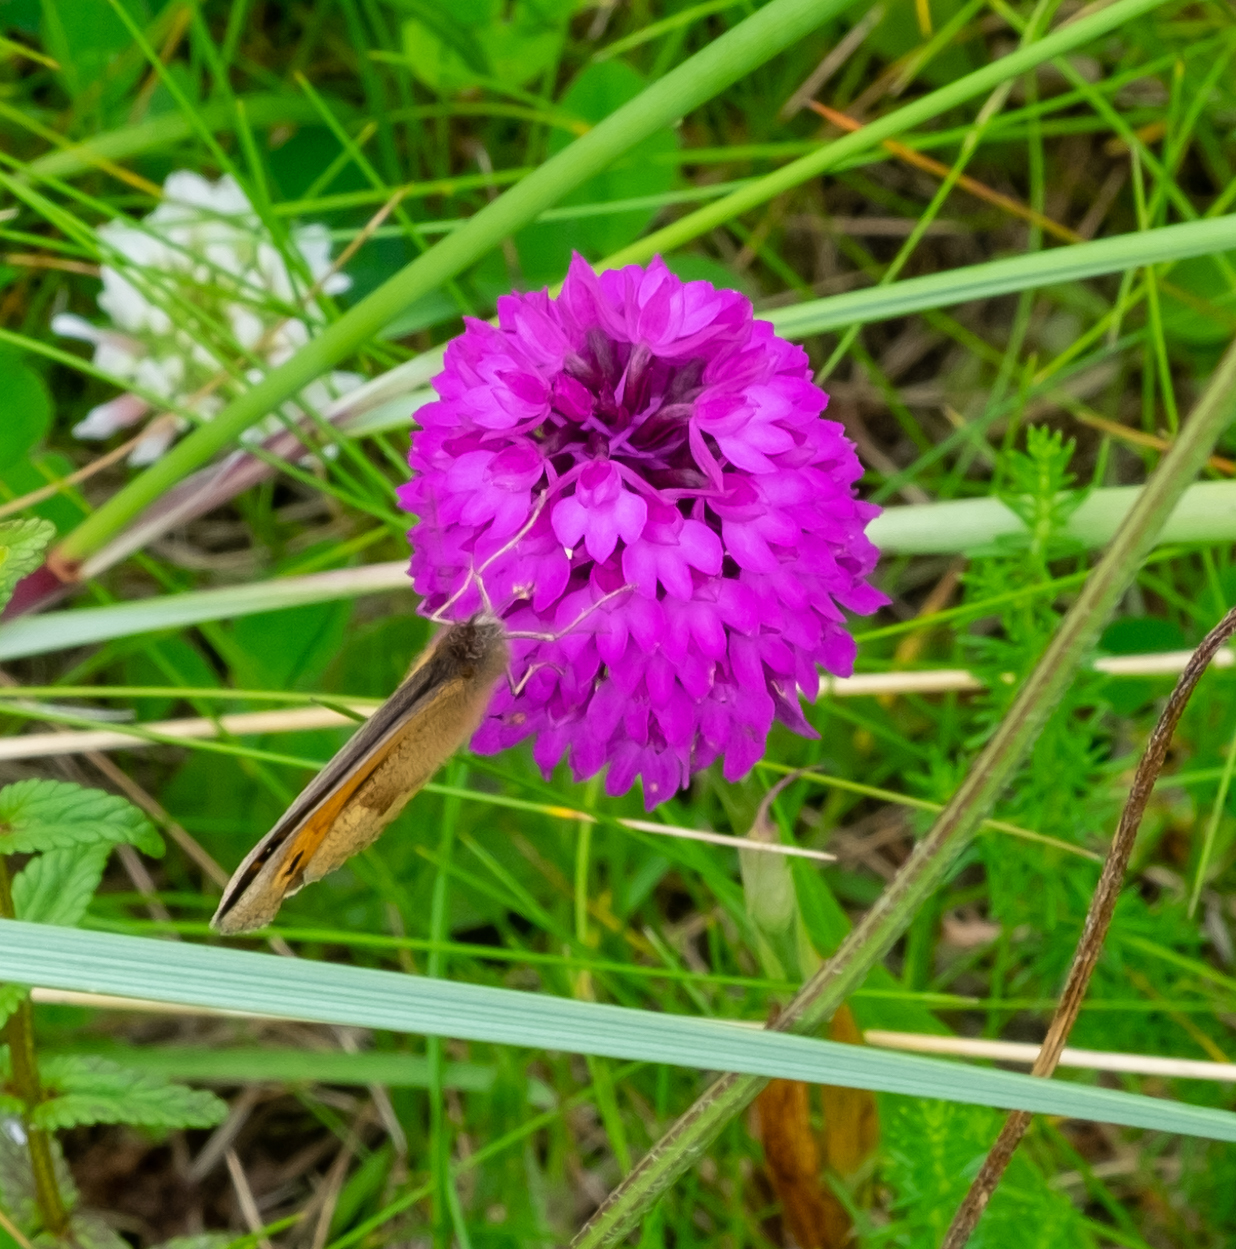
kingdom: Plantae
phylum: Tracheophyta
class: Liliopsida
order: Asparagales
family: Orchidaceae
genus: Anacamptis
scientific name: Anacamptis pyramidalis
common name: Pyramidal orchid
